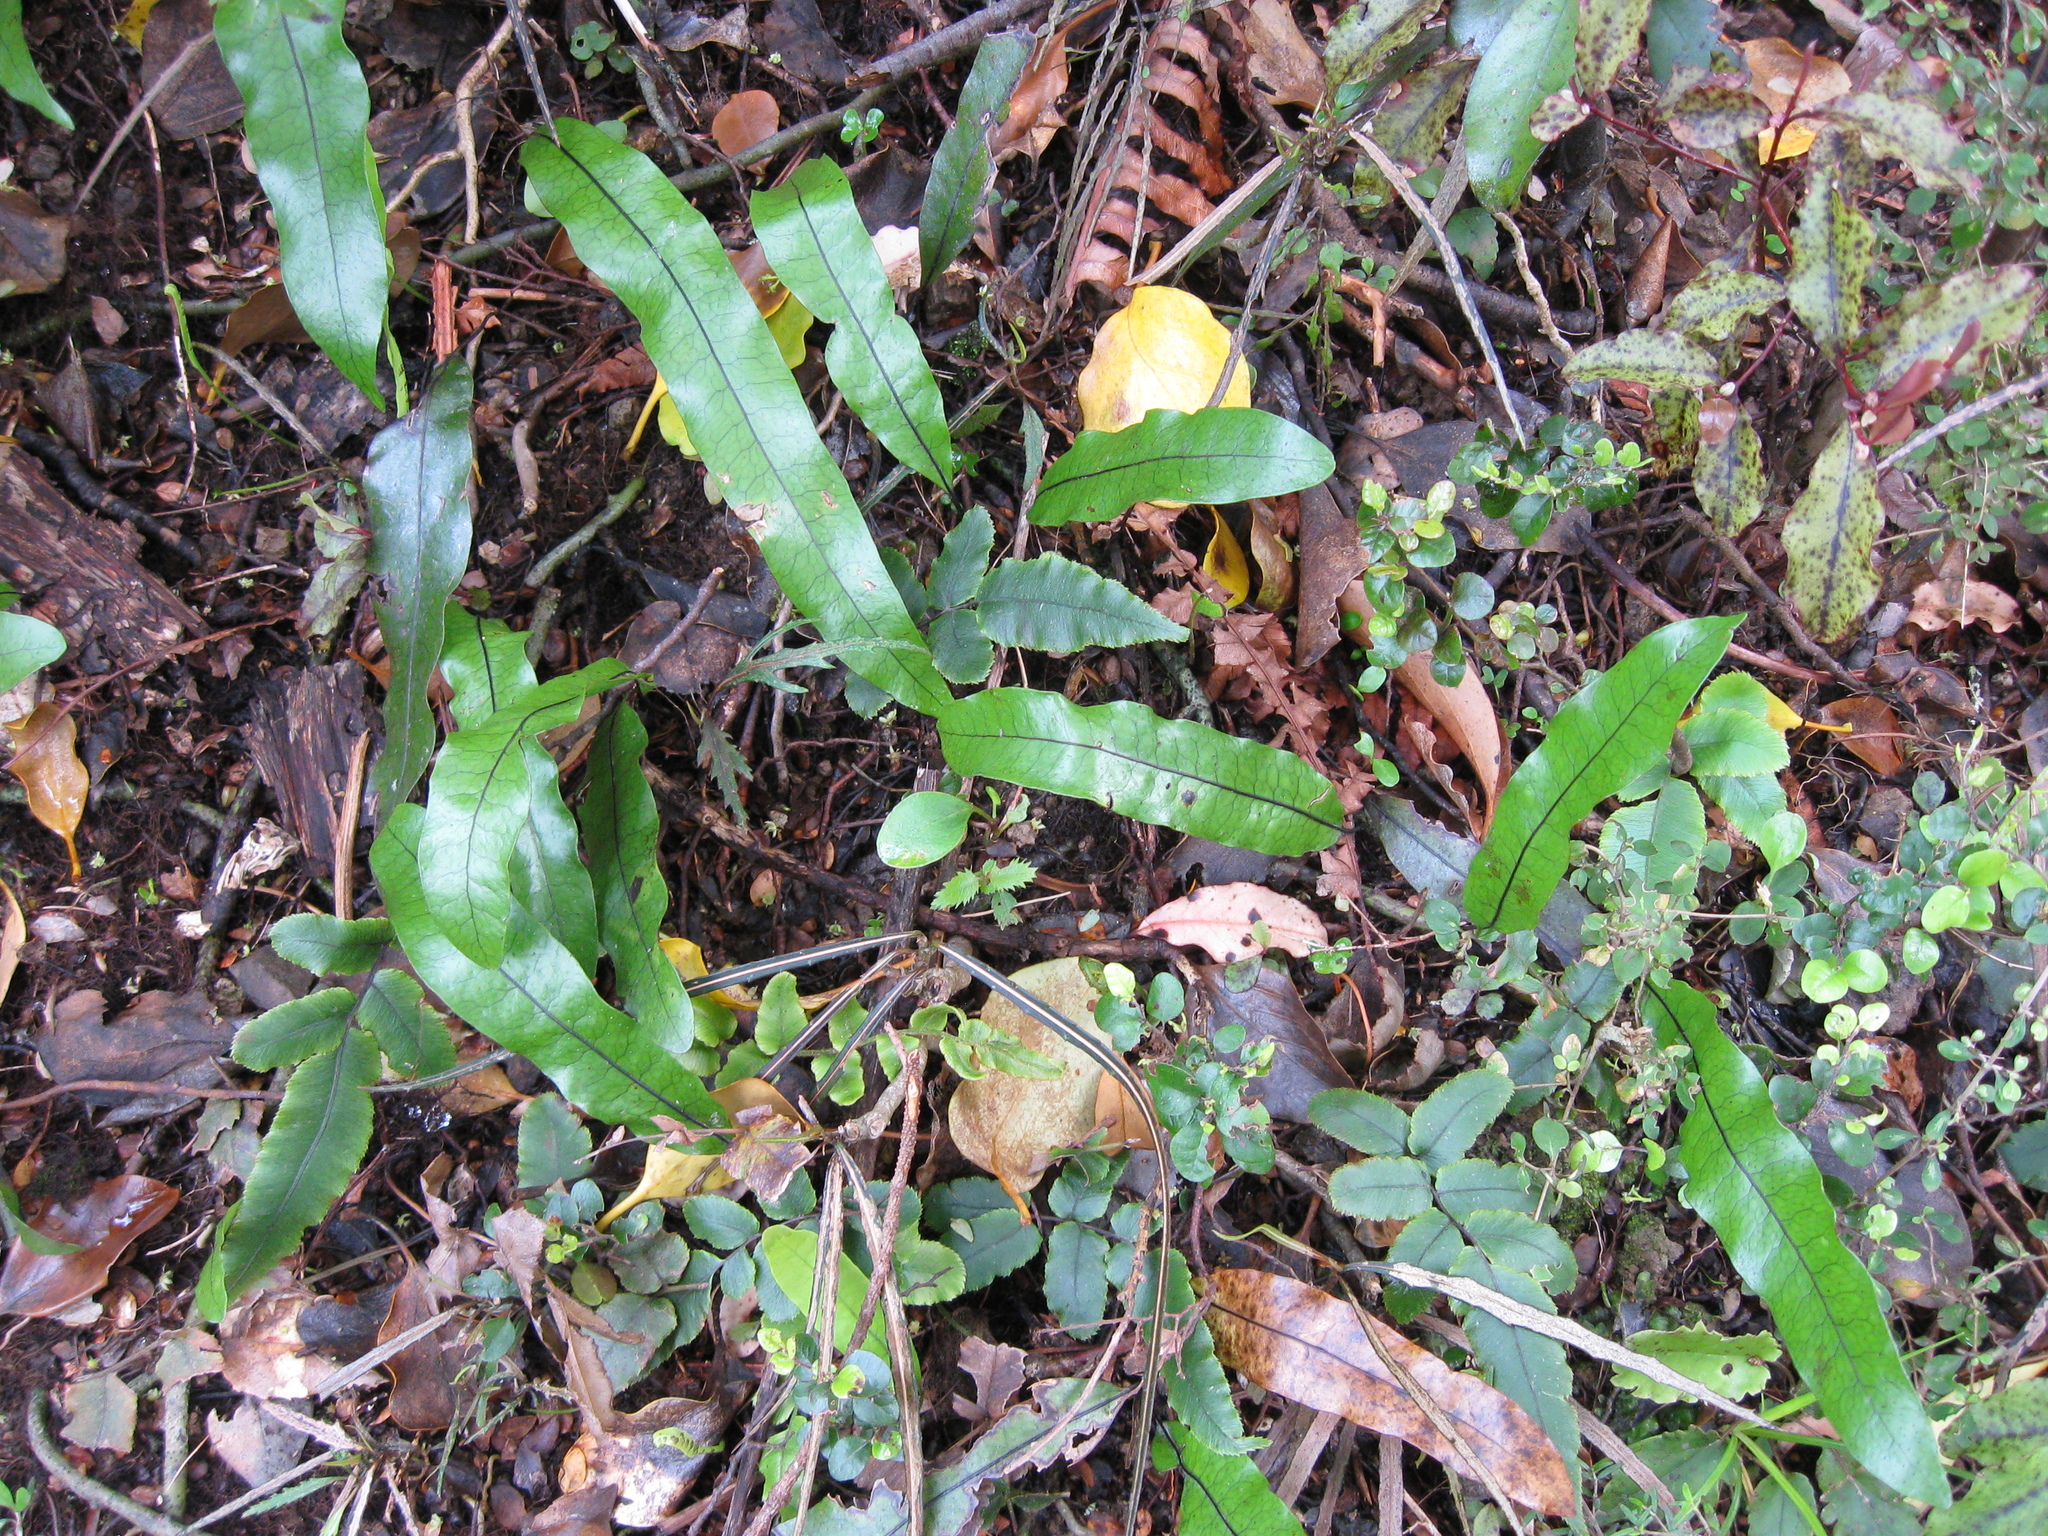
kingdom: Plantae
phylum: Tracheophyta
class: Polypodiopsida
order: Polypodiales
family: Polypodiaceae
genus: Lecanopteris
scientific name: Lecanopteris pustulata
